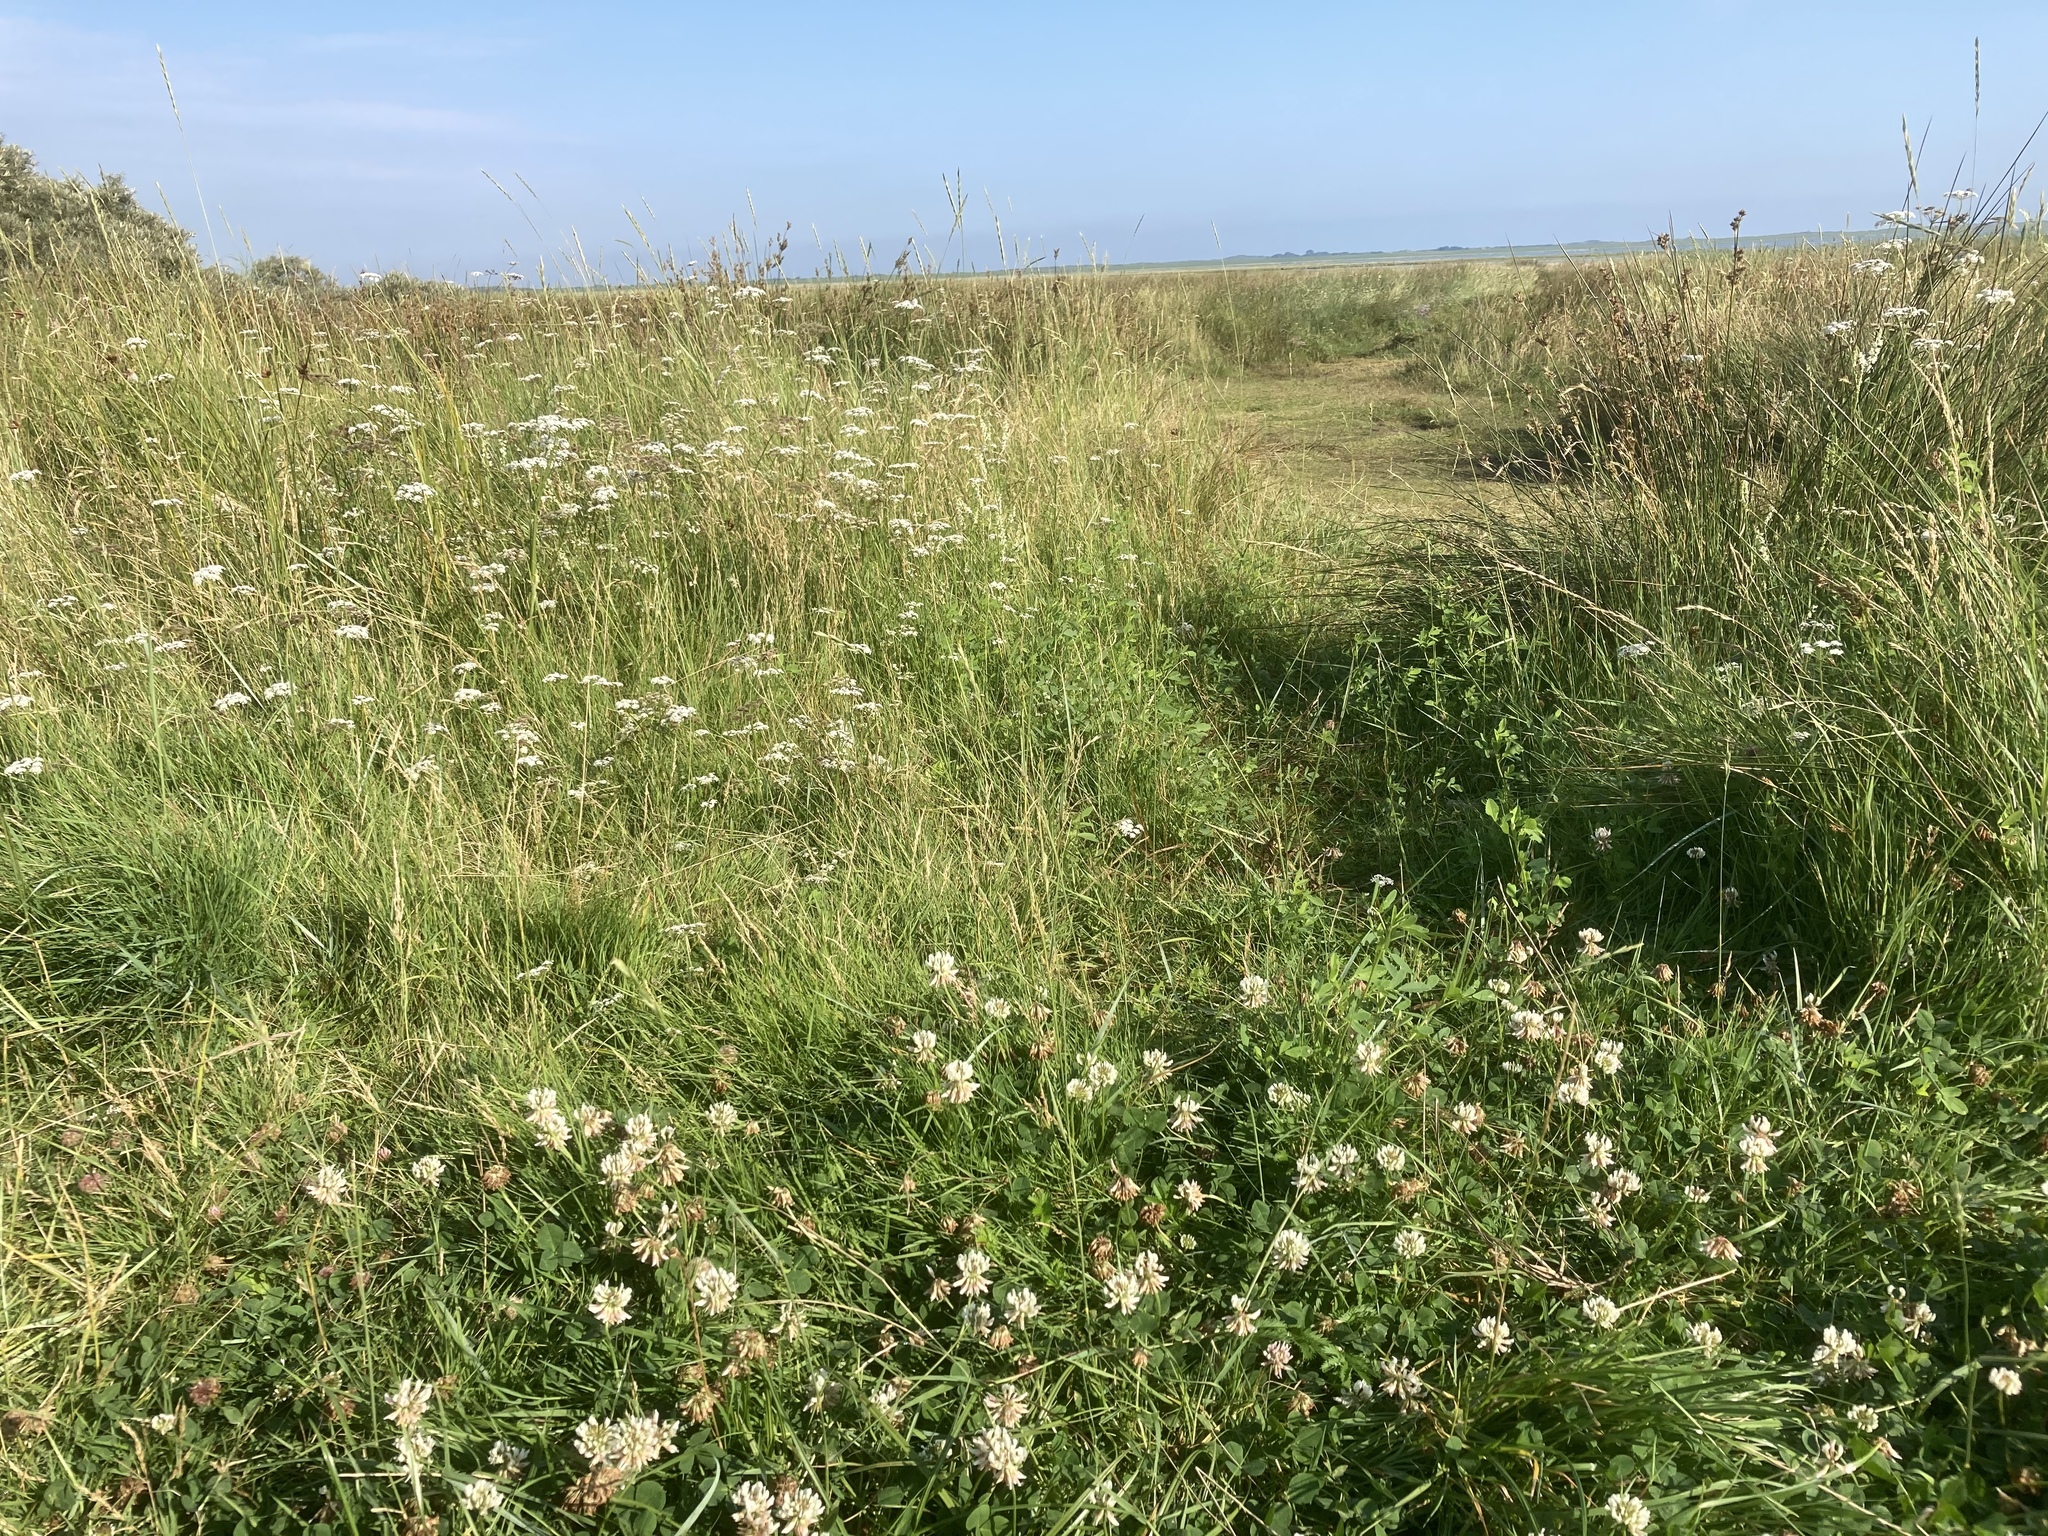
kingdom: Plantae
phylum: Tracheophyta
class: Magnoliopsida
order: Fabales
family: Fabaceae
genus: Trifolium
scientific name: Trifolium repens
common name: White clover
